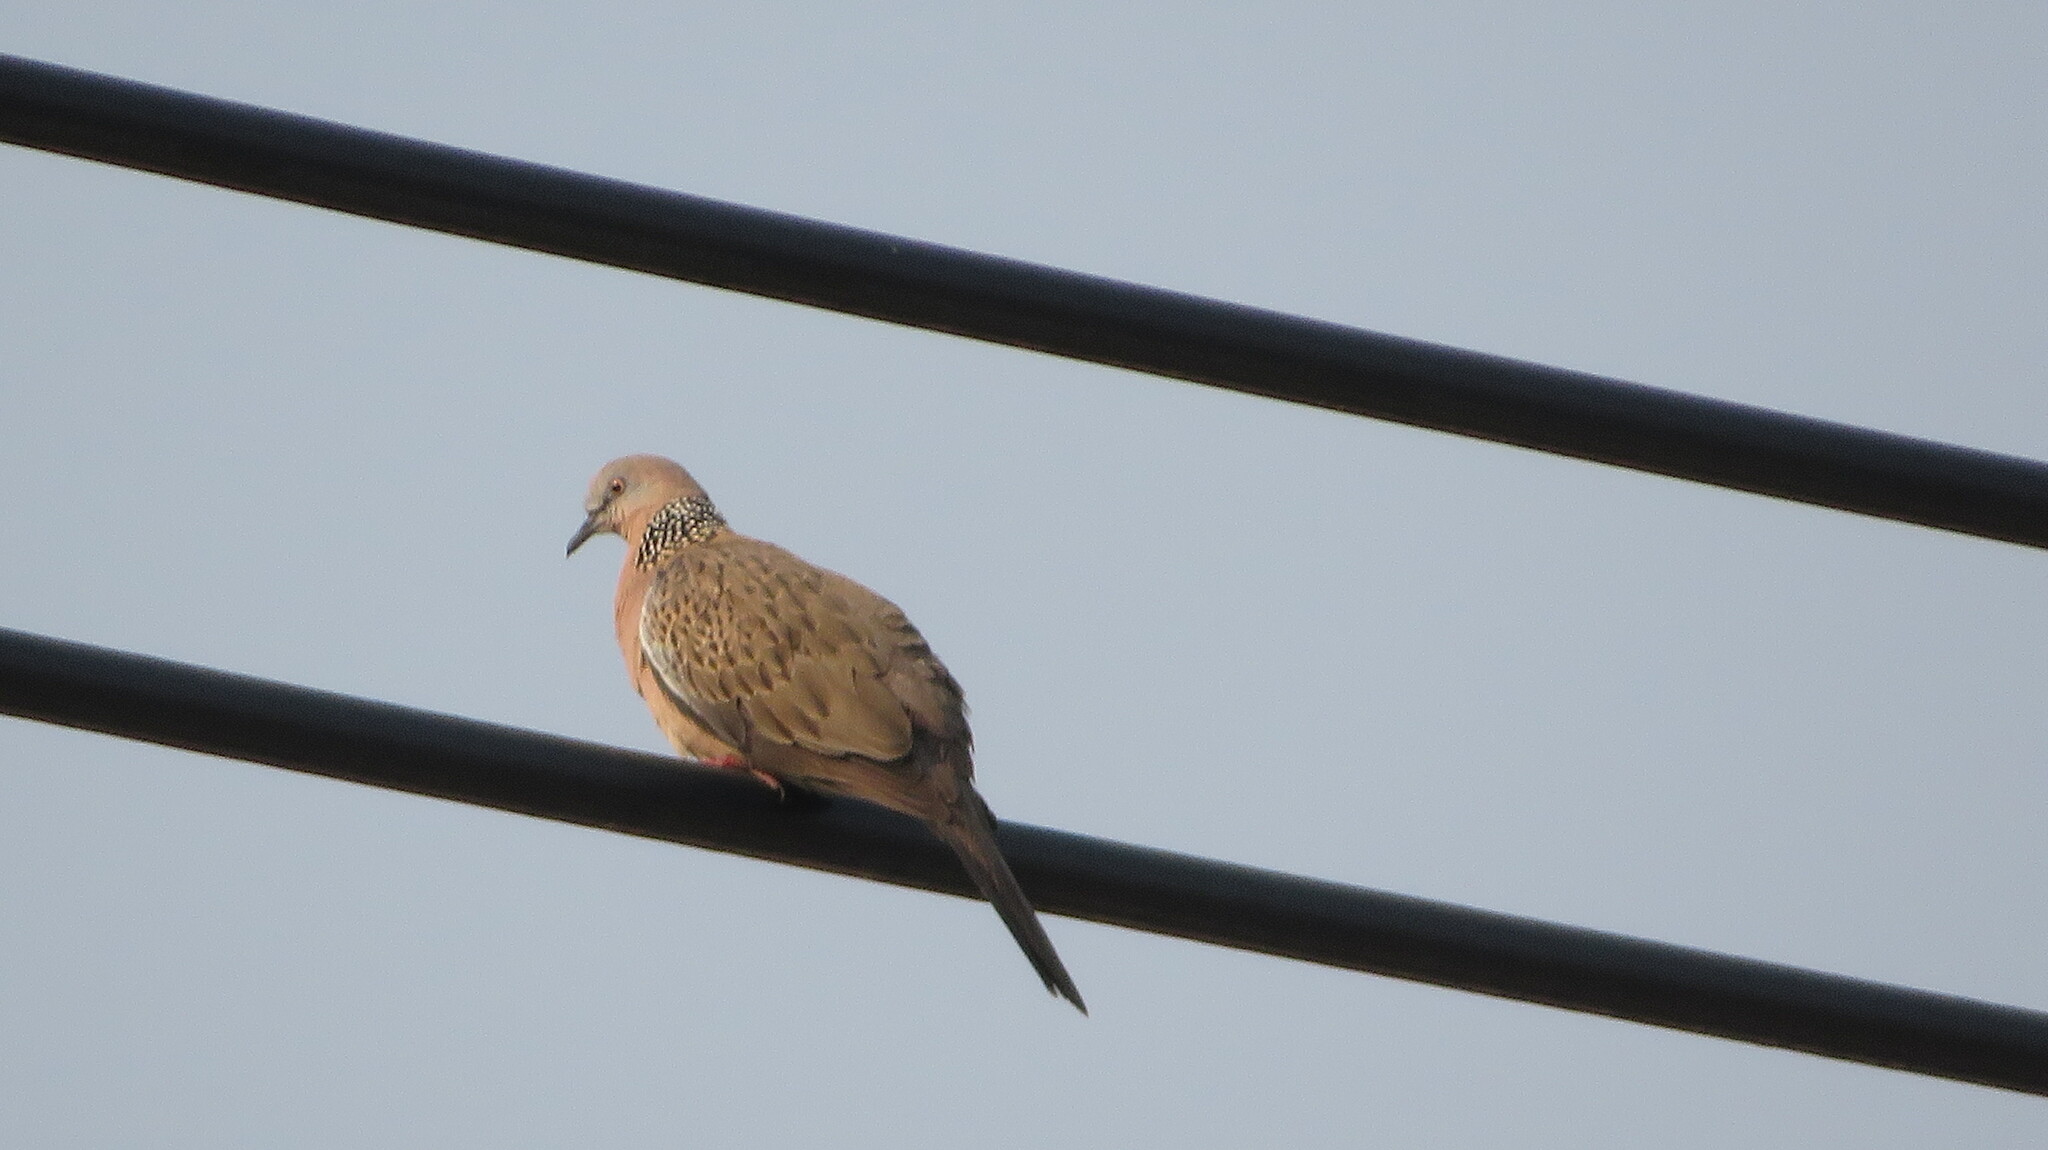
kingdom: Animalia
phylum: Chordata
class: Aves
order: Columbiformes
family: Columbidae
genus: Spilopelia
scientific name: Spilopelia chinensis
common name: Spotted dove
